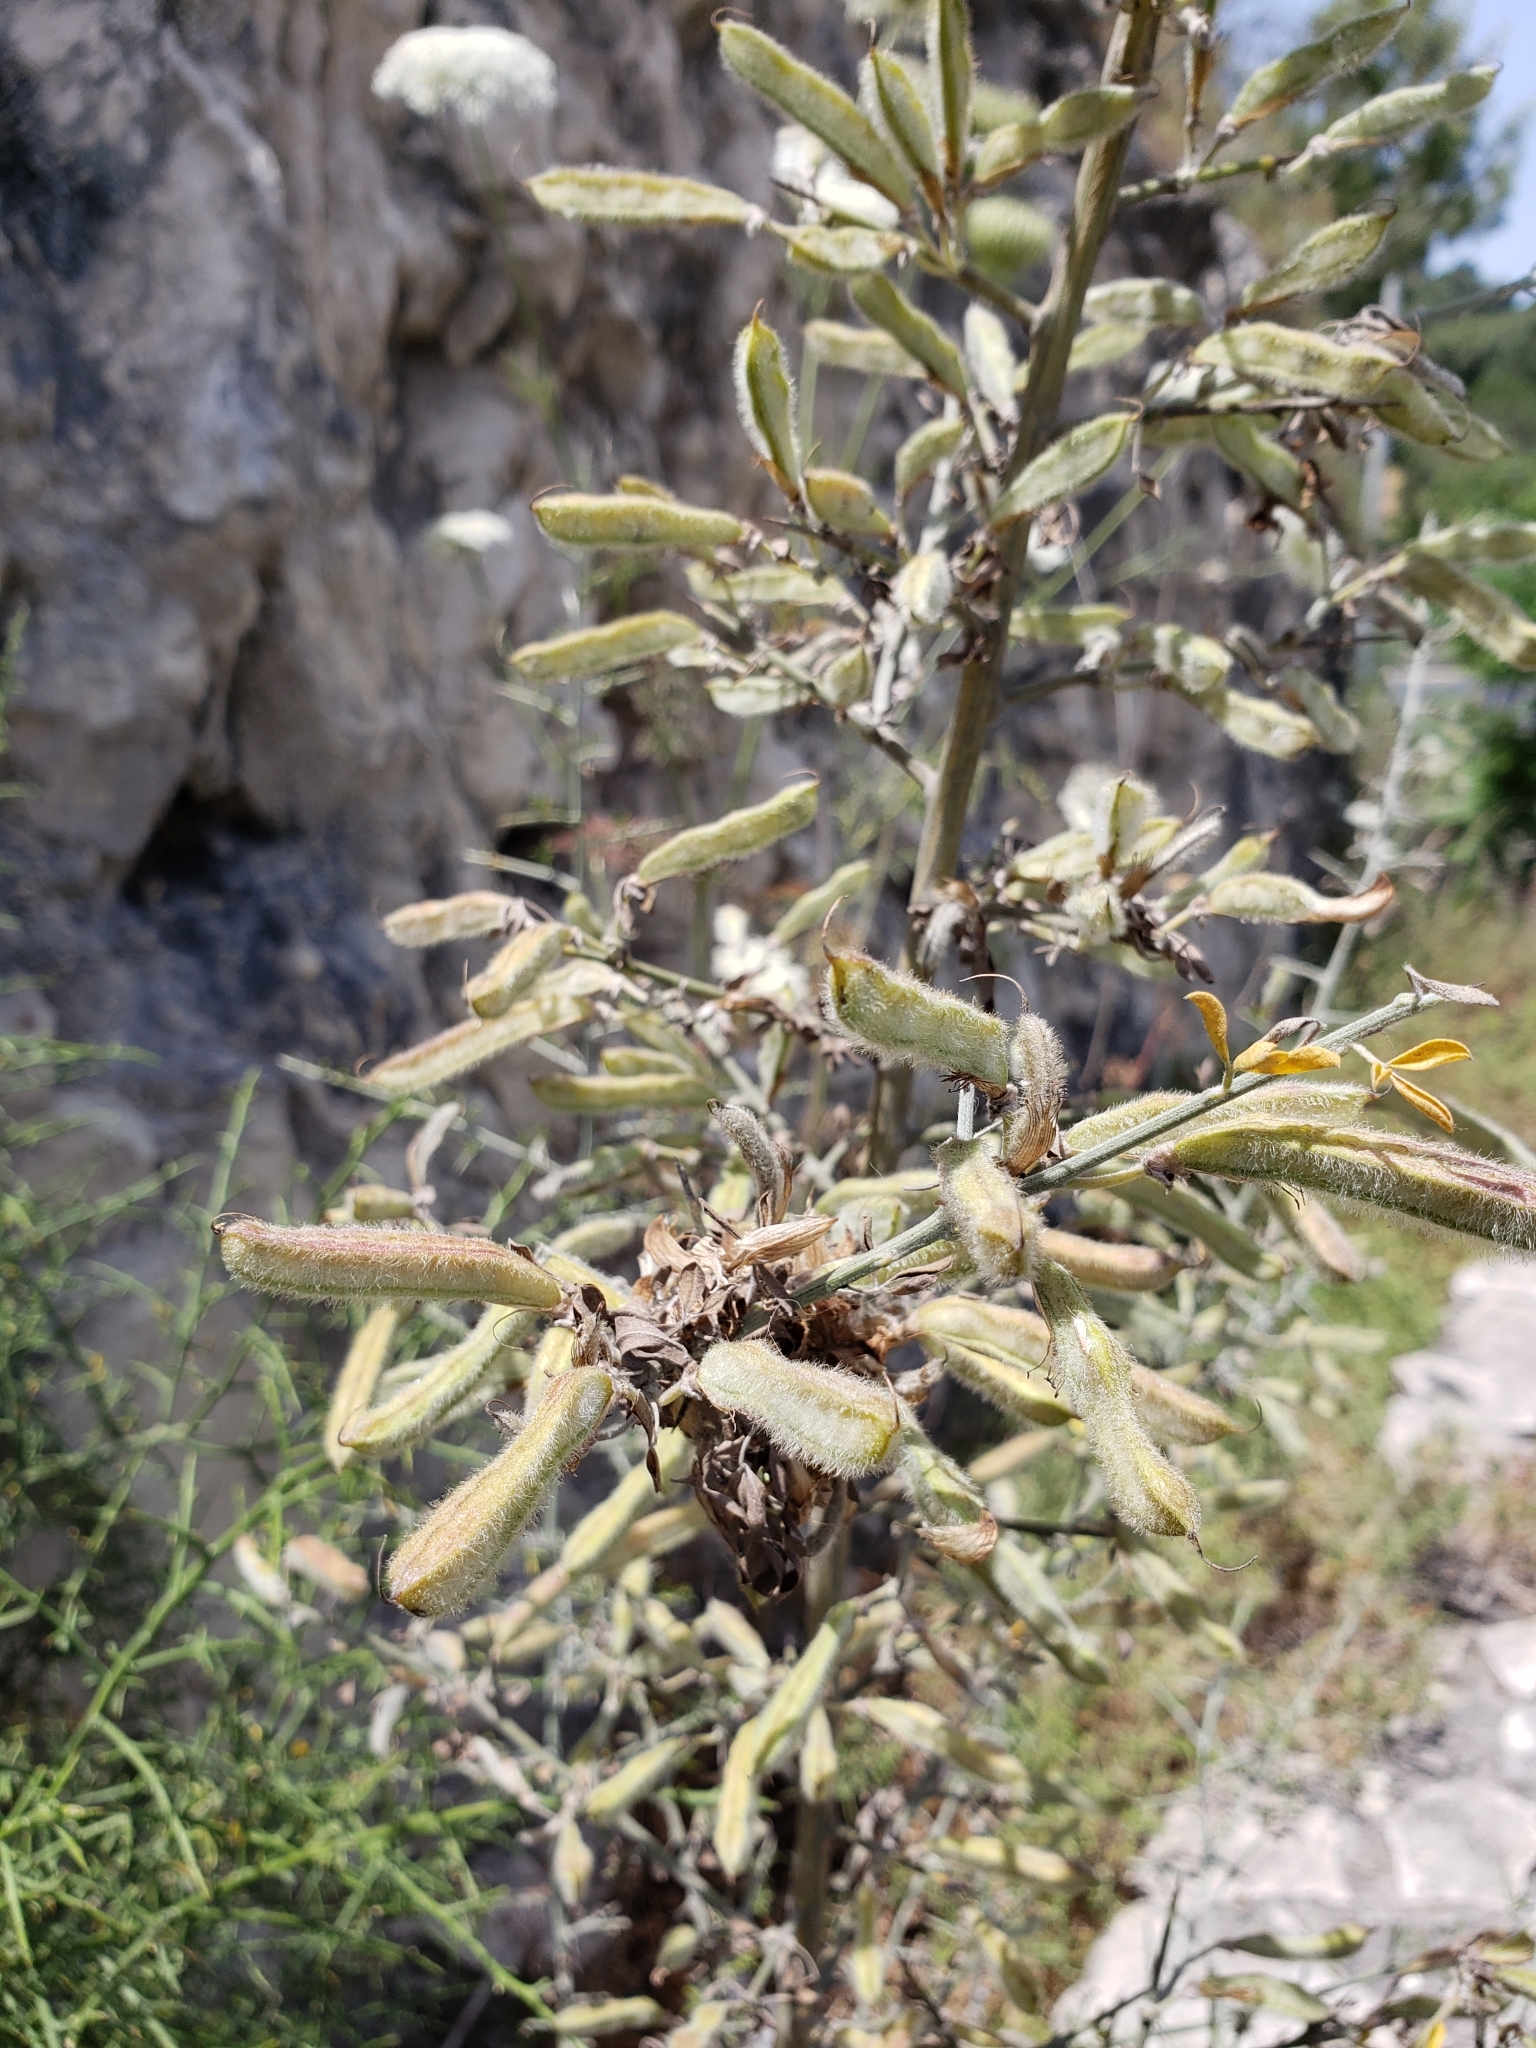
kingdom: Plantae
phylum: Tracheophyta
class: Magnoliopsida
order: Fabales
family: Fabaceae
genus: Calicotome
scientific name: Calicotome villosa
